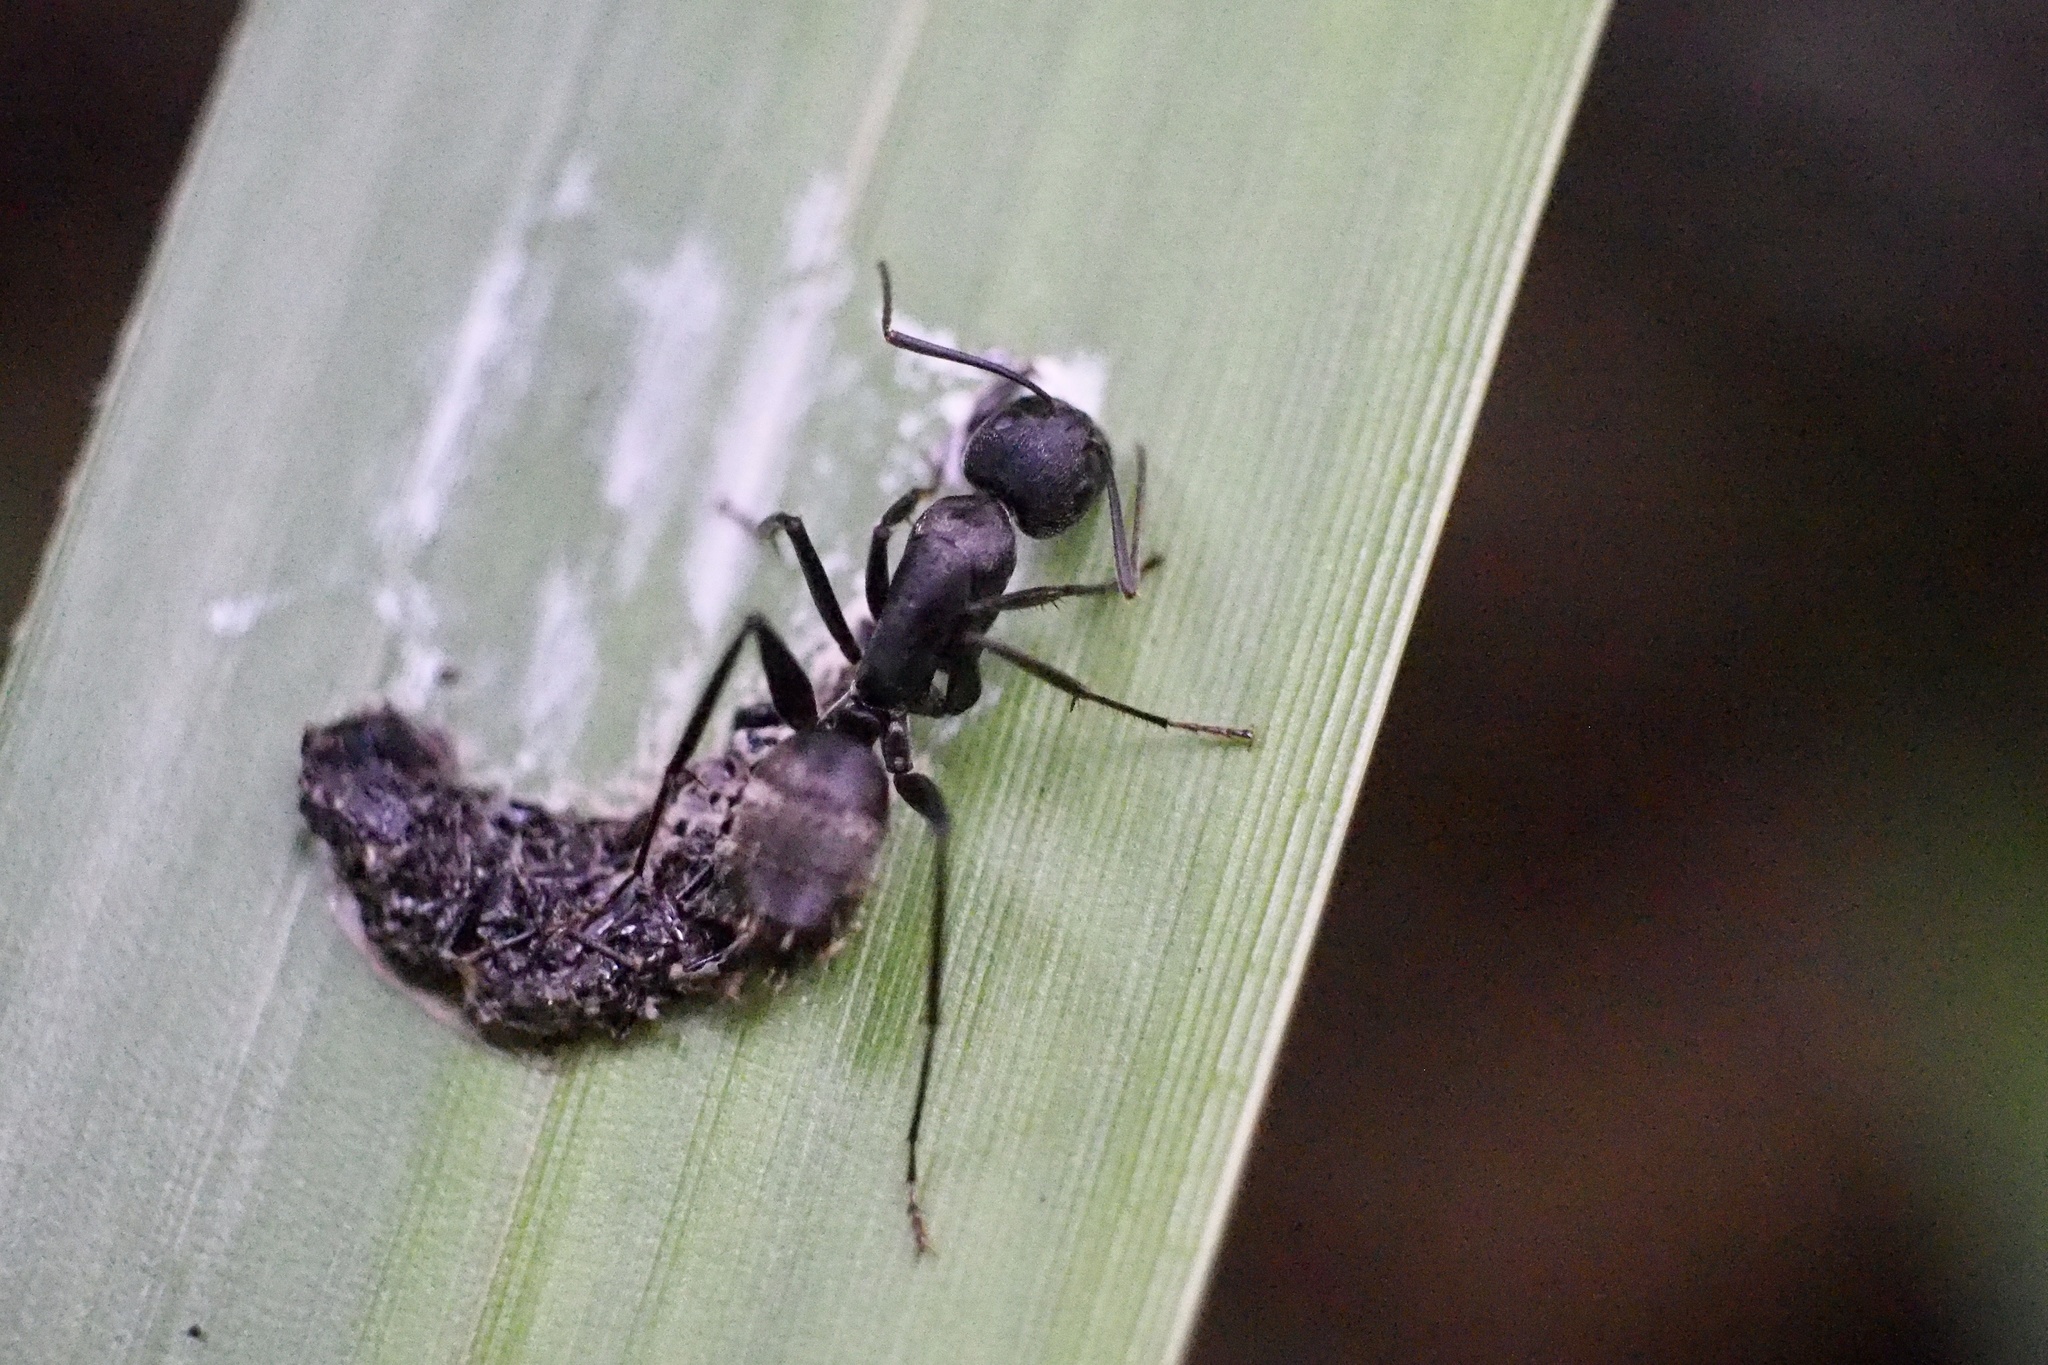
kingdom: Animalia
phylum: Arthropoda
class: Insecta
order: Hymenoptera
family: Formicidae
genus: Camponotus
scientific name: Camponotus japonicus
